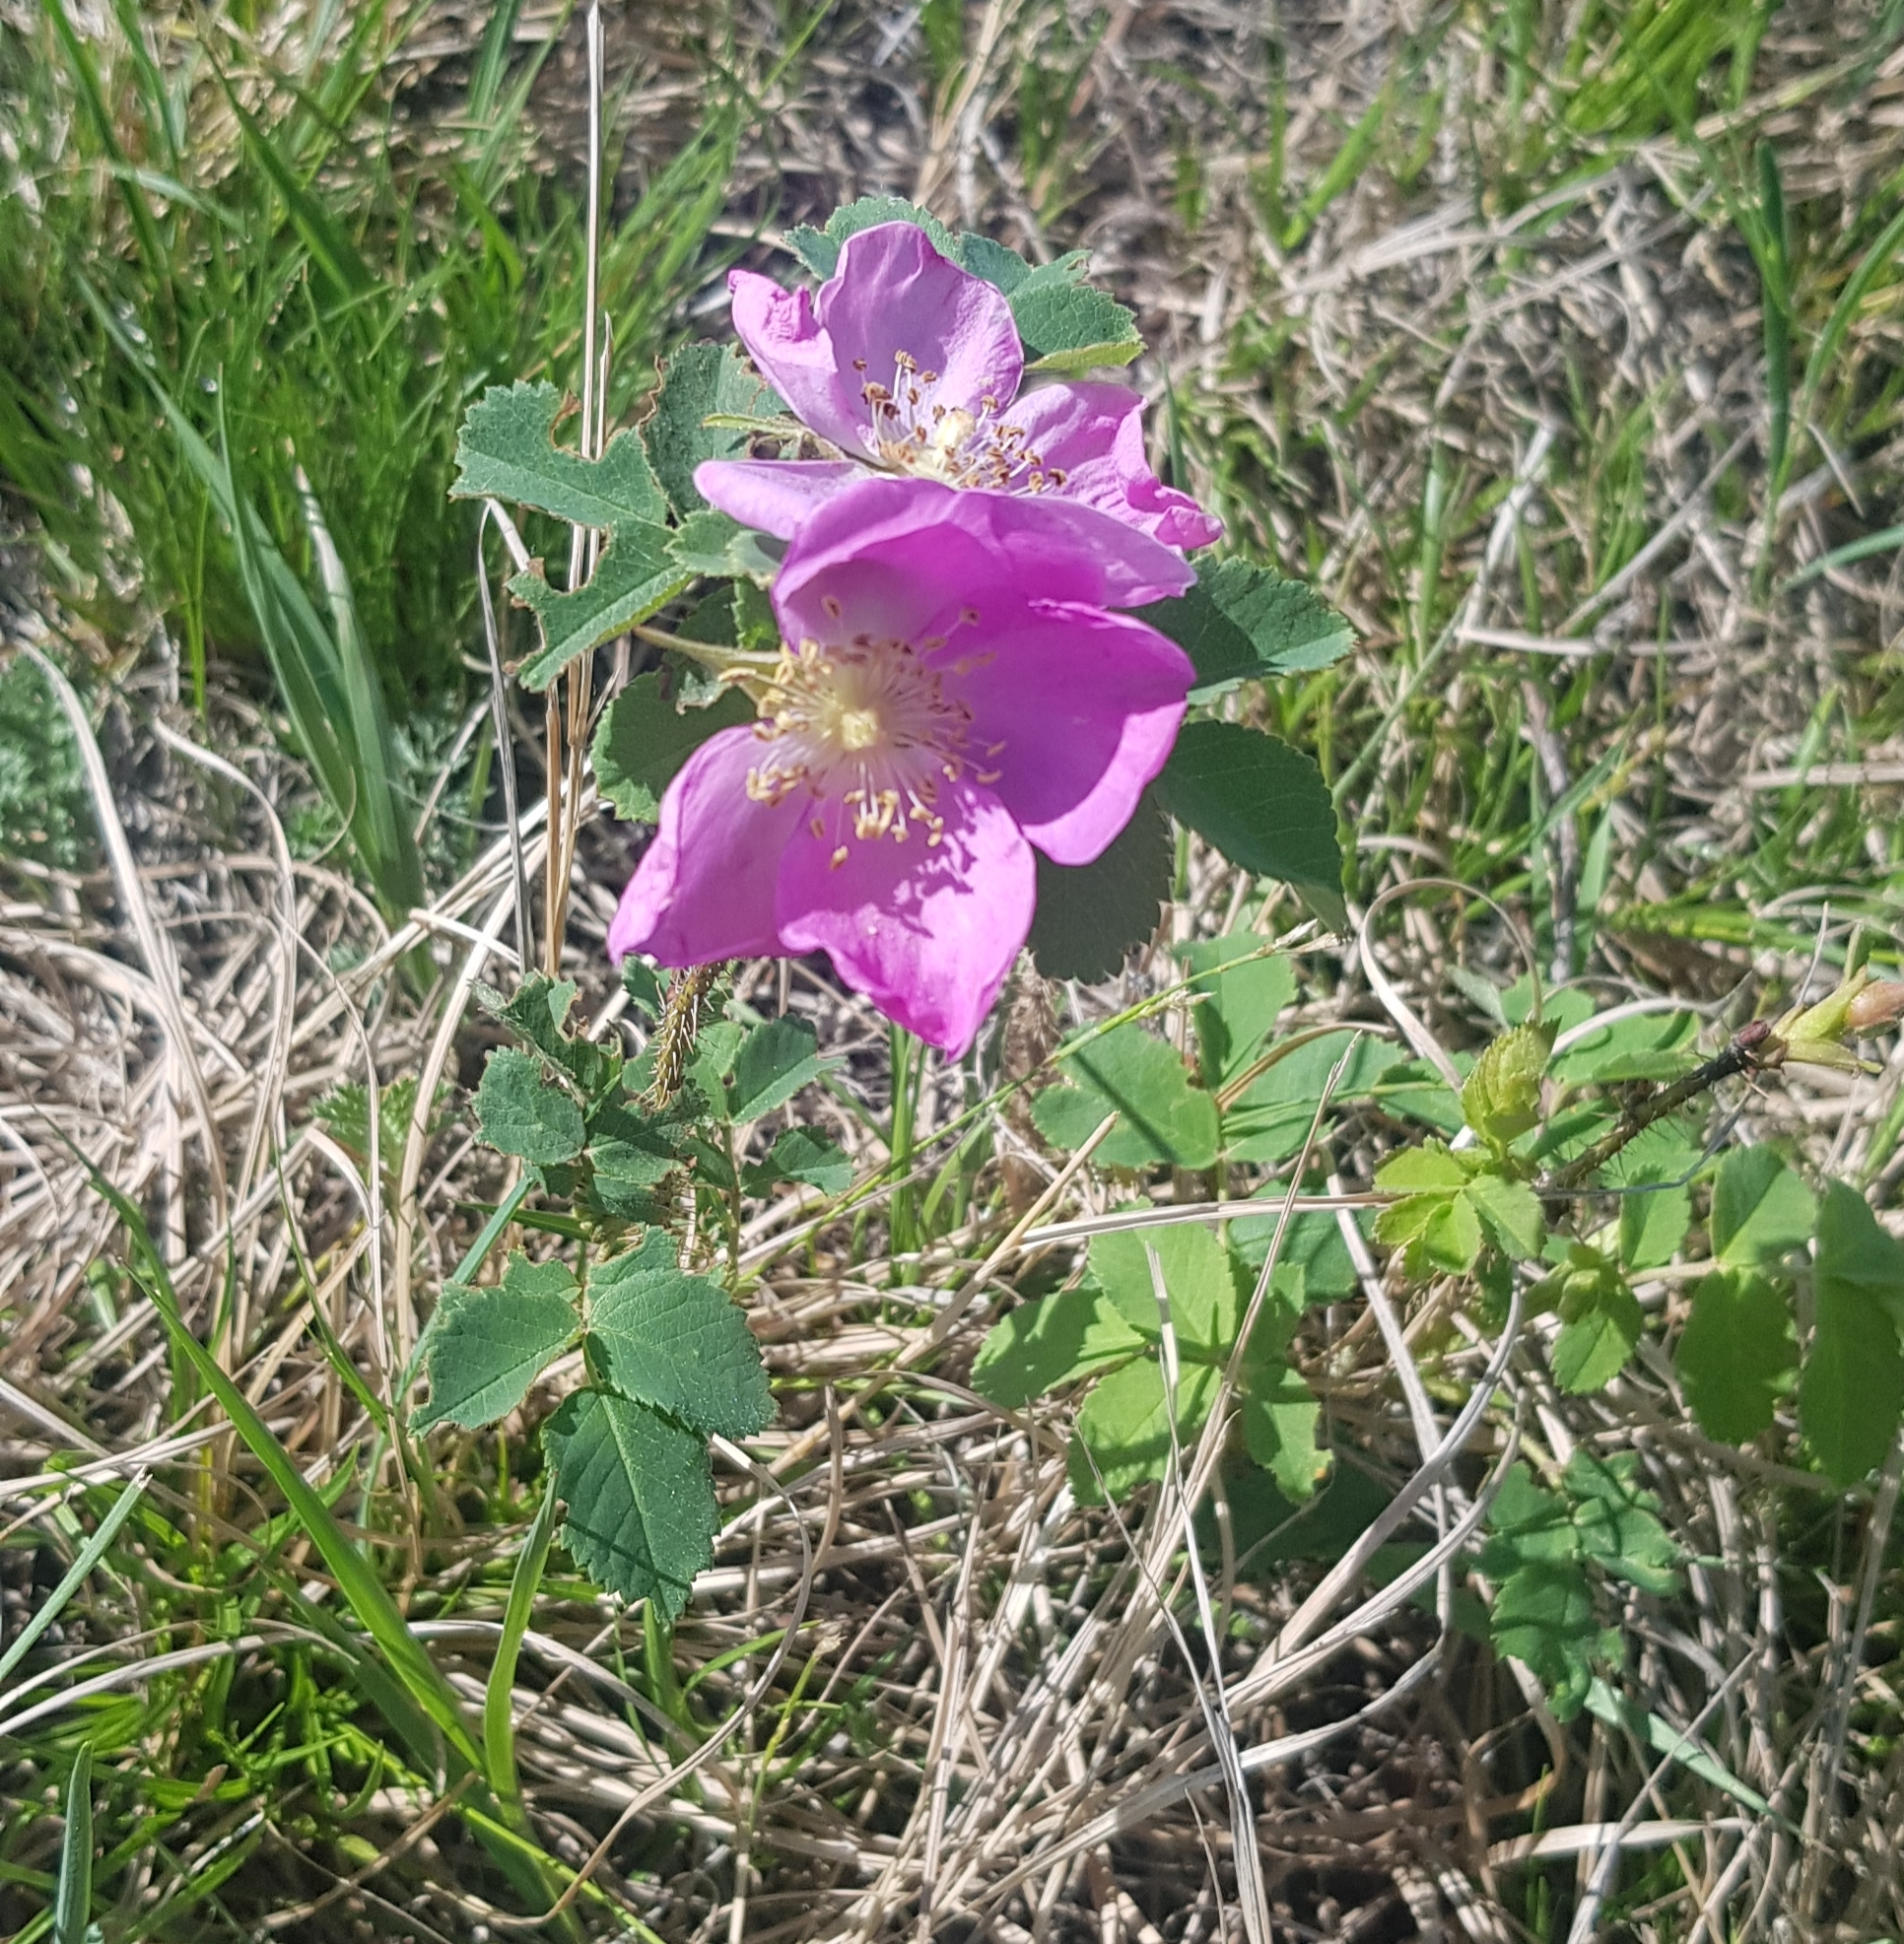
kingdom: Plantae
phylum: Tracheophyta
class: Magnoliopsida
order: Rosales
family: Rosaceae
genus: Rosa
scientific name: Rosa acicularis
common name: Prickly rose
